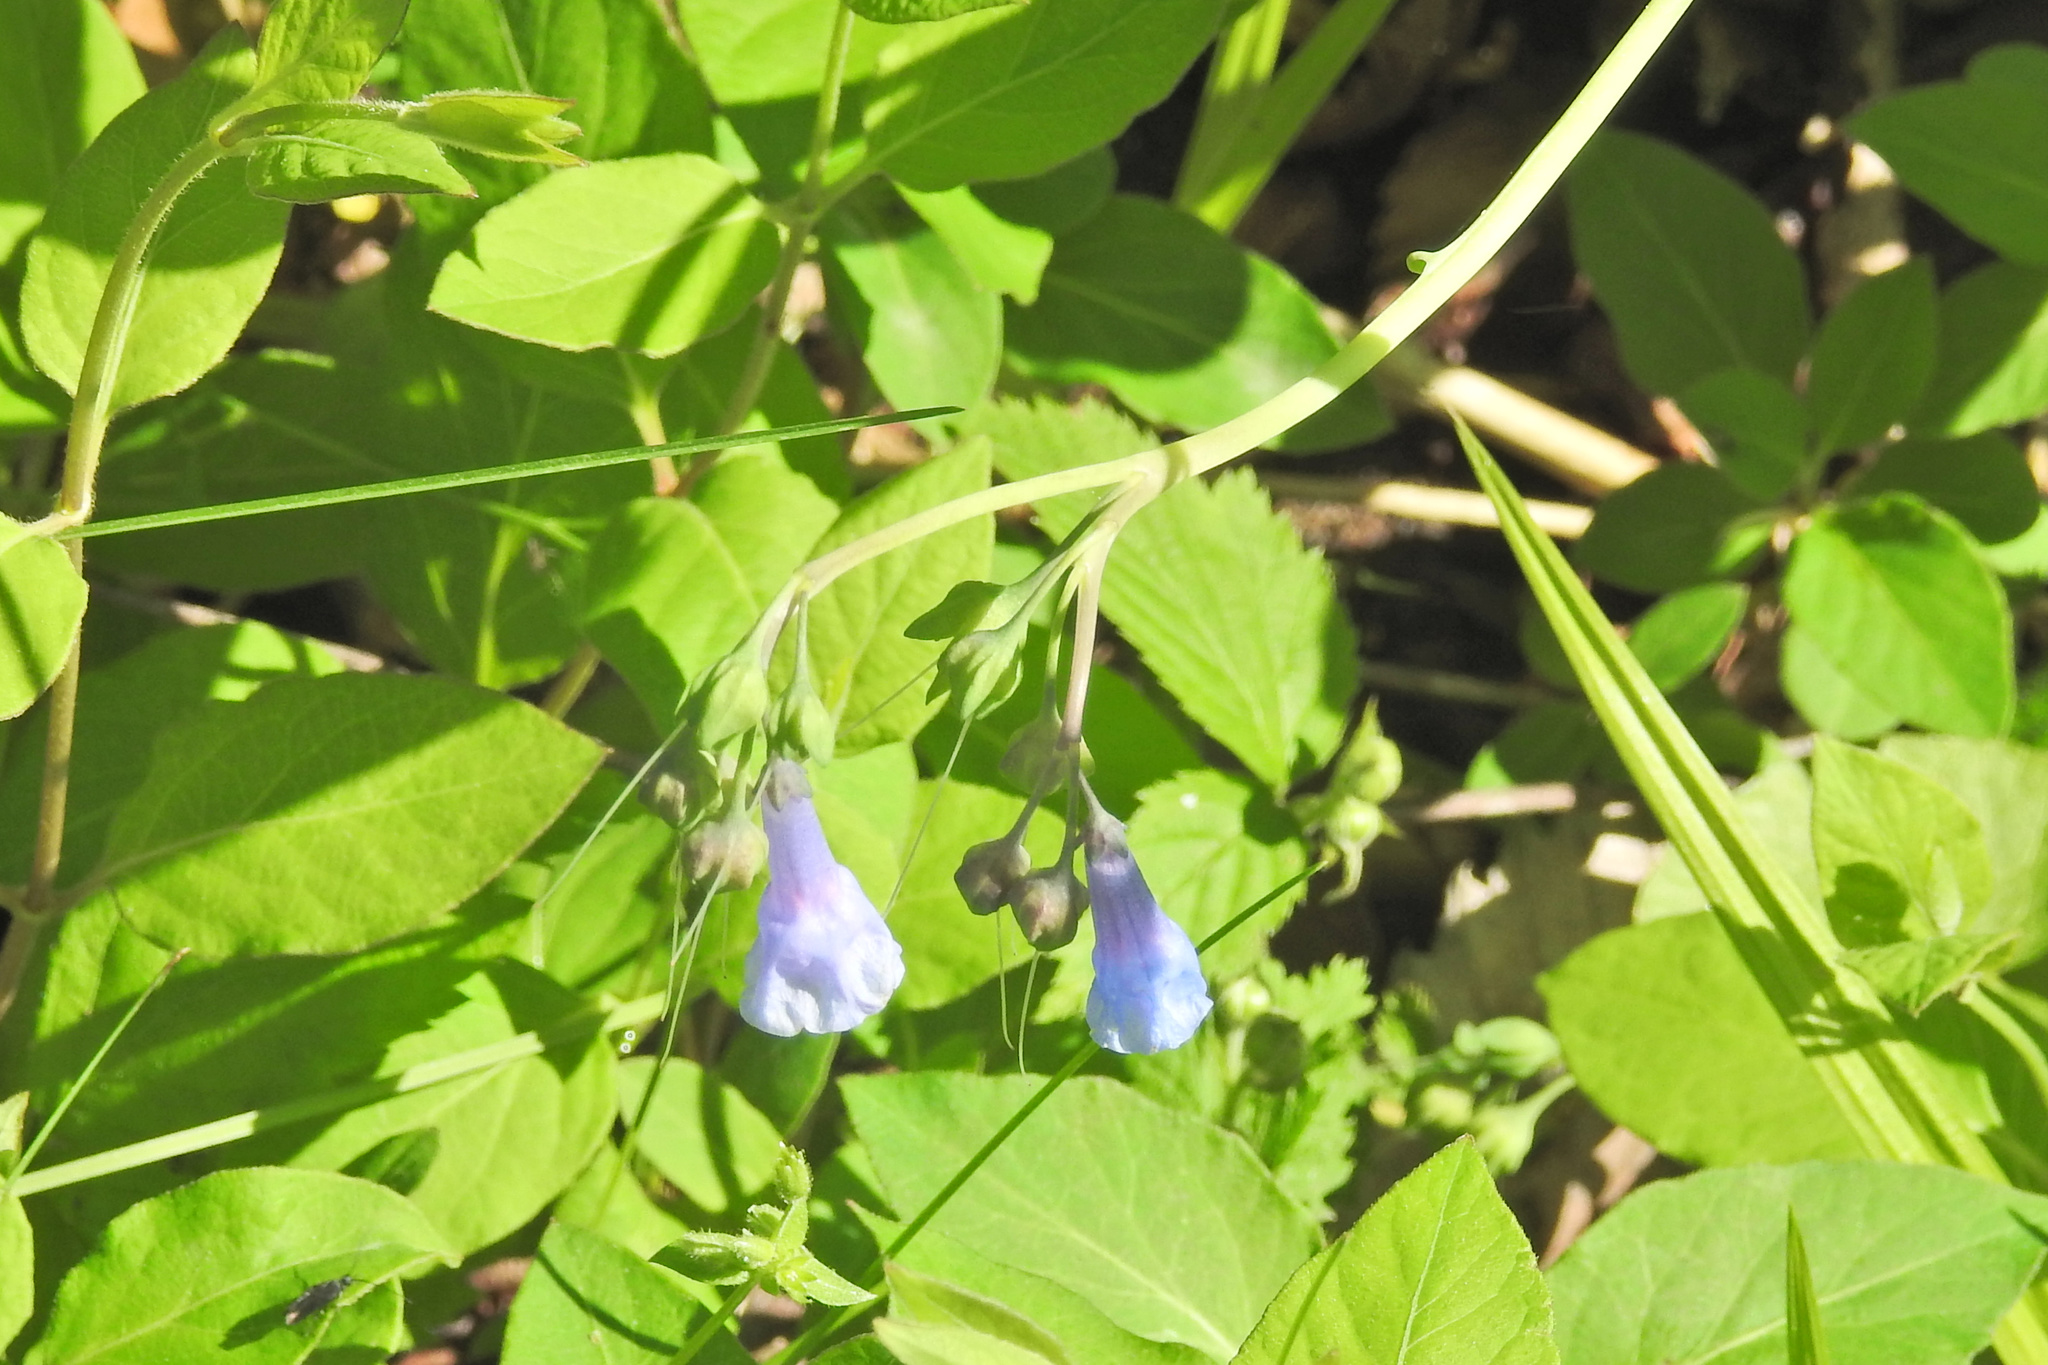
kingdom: Plantae
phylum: Tracheophyta
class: Magnoliopsida
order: Boraginales
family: Boraginaceae
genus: Mertensia
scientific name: Mertensia virginica
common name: Virginia bluebells
